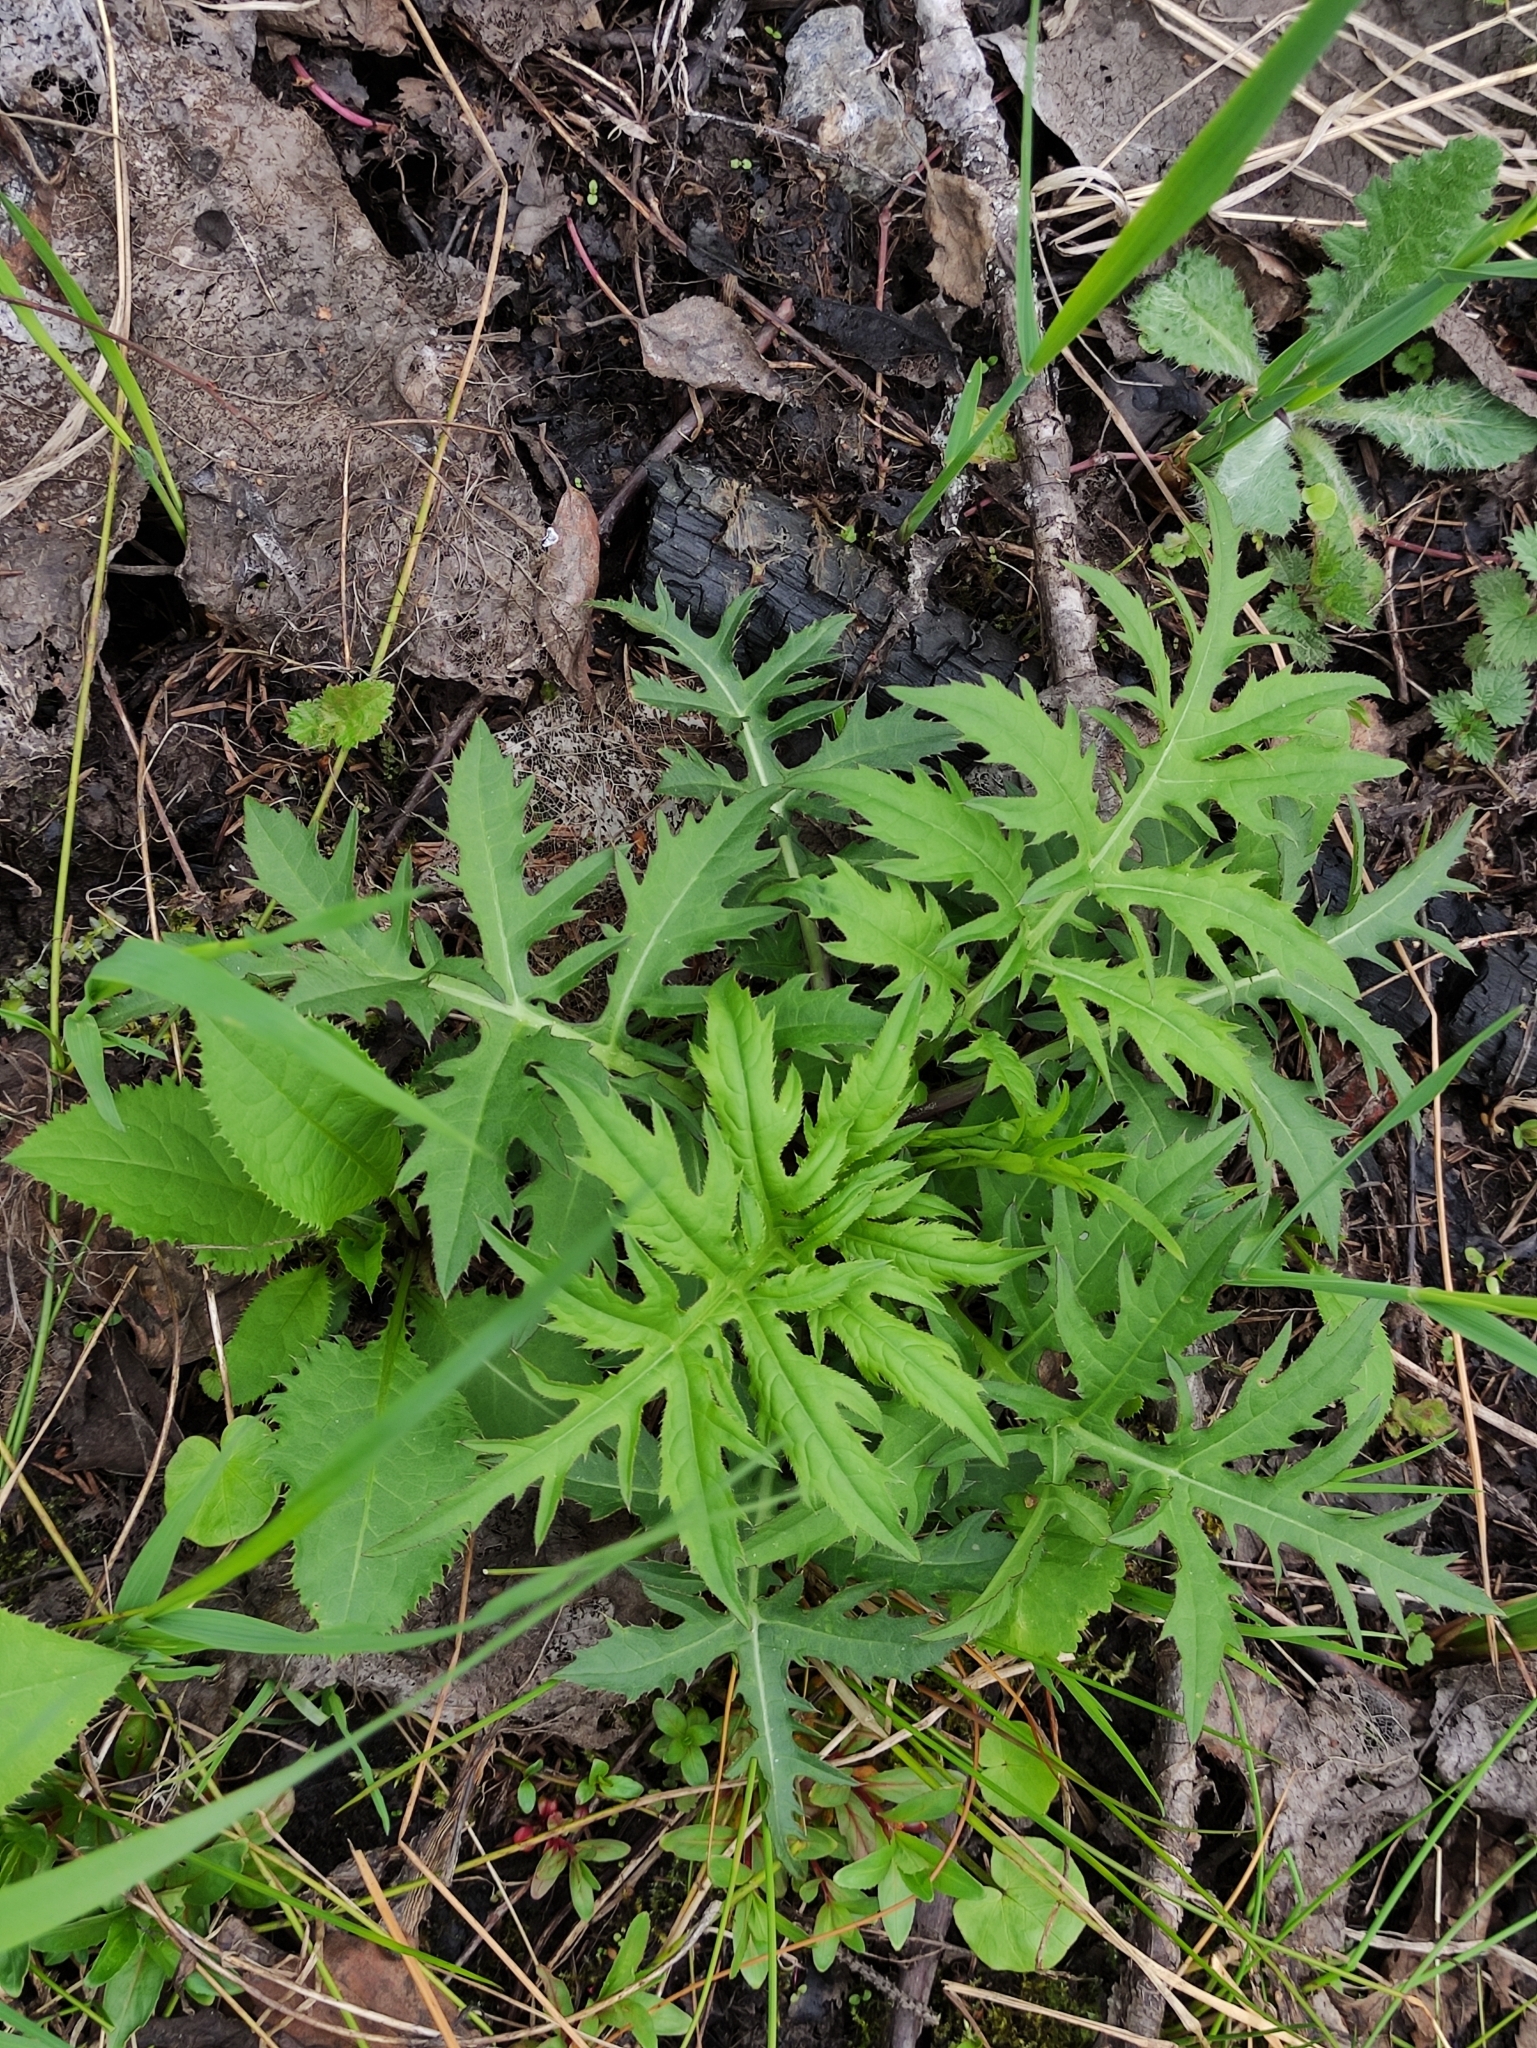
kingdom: Plantae
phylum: Tracheophyta
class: Magnoliopsida
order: Asterales
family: Asteraceae
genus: Cirsium
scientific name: Cirsium oleraceum
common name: Cabbage thistle
